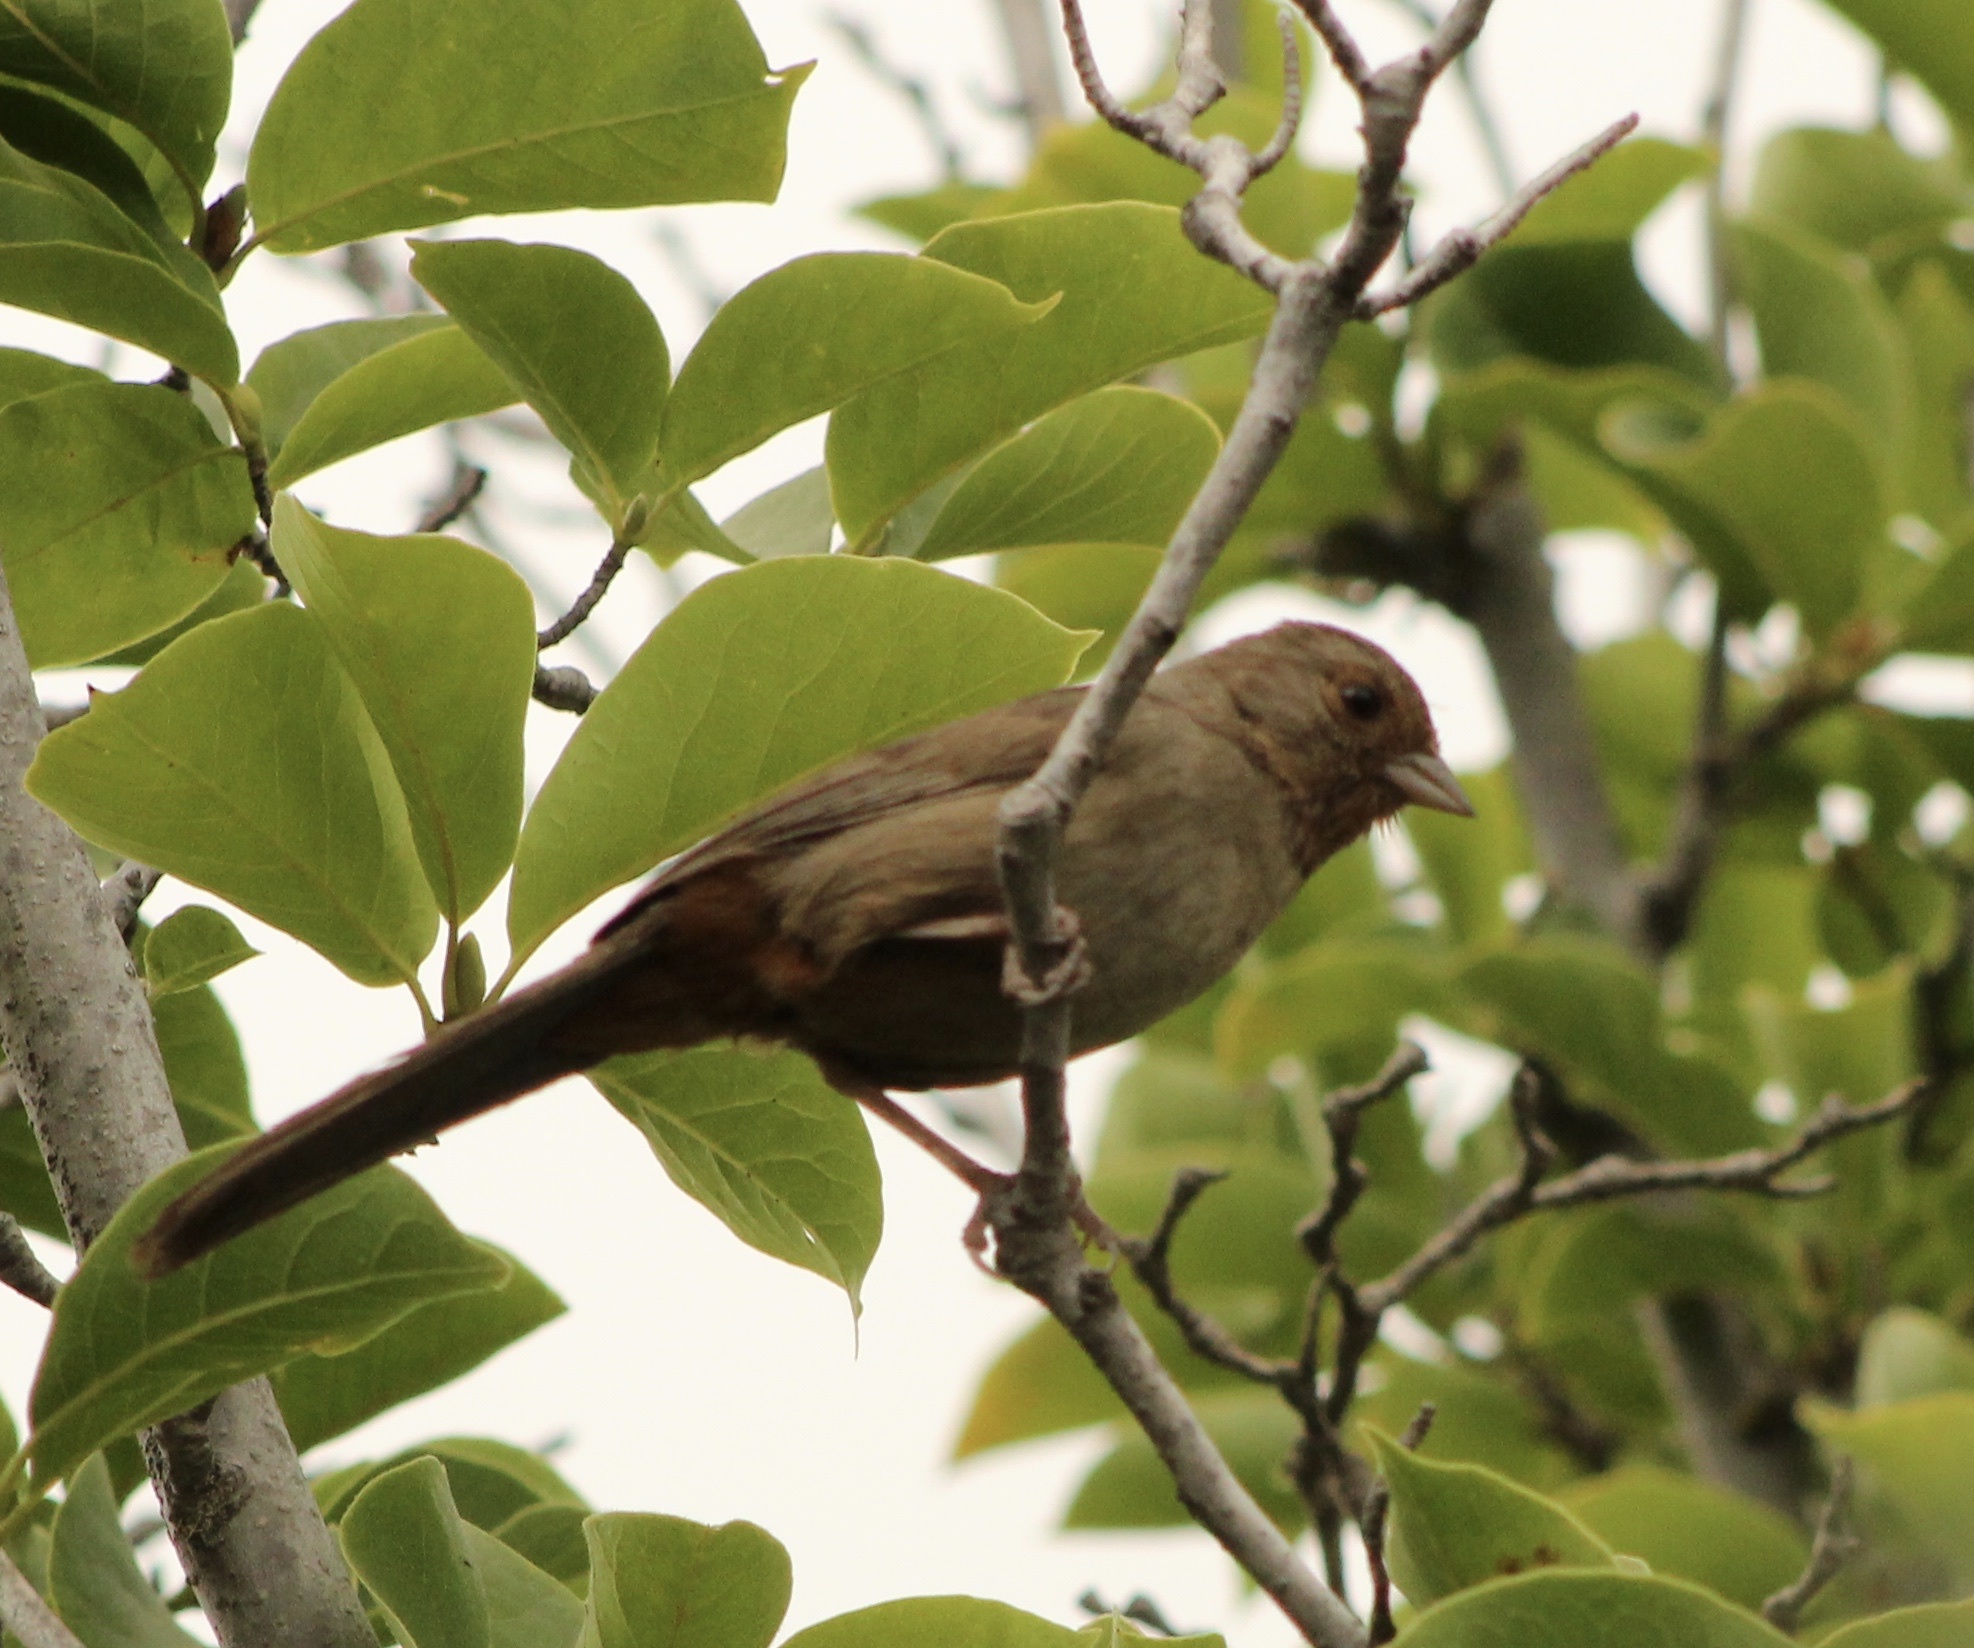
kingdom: Animalia
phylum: Chordata
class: Aves
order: Passeriformes
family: Passerellidae
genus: Melozone
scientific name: Melozone crissalis
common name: California towhee
